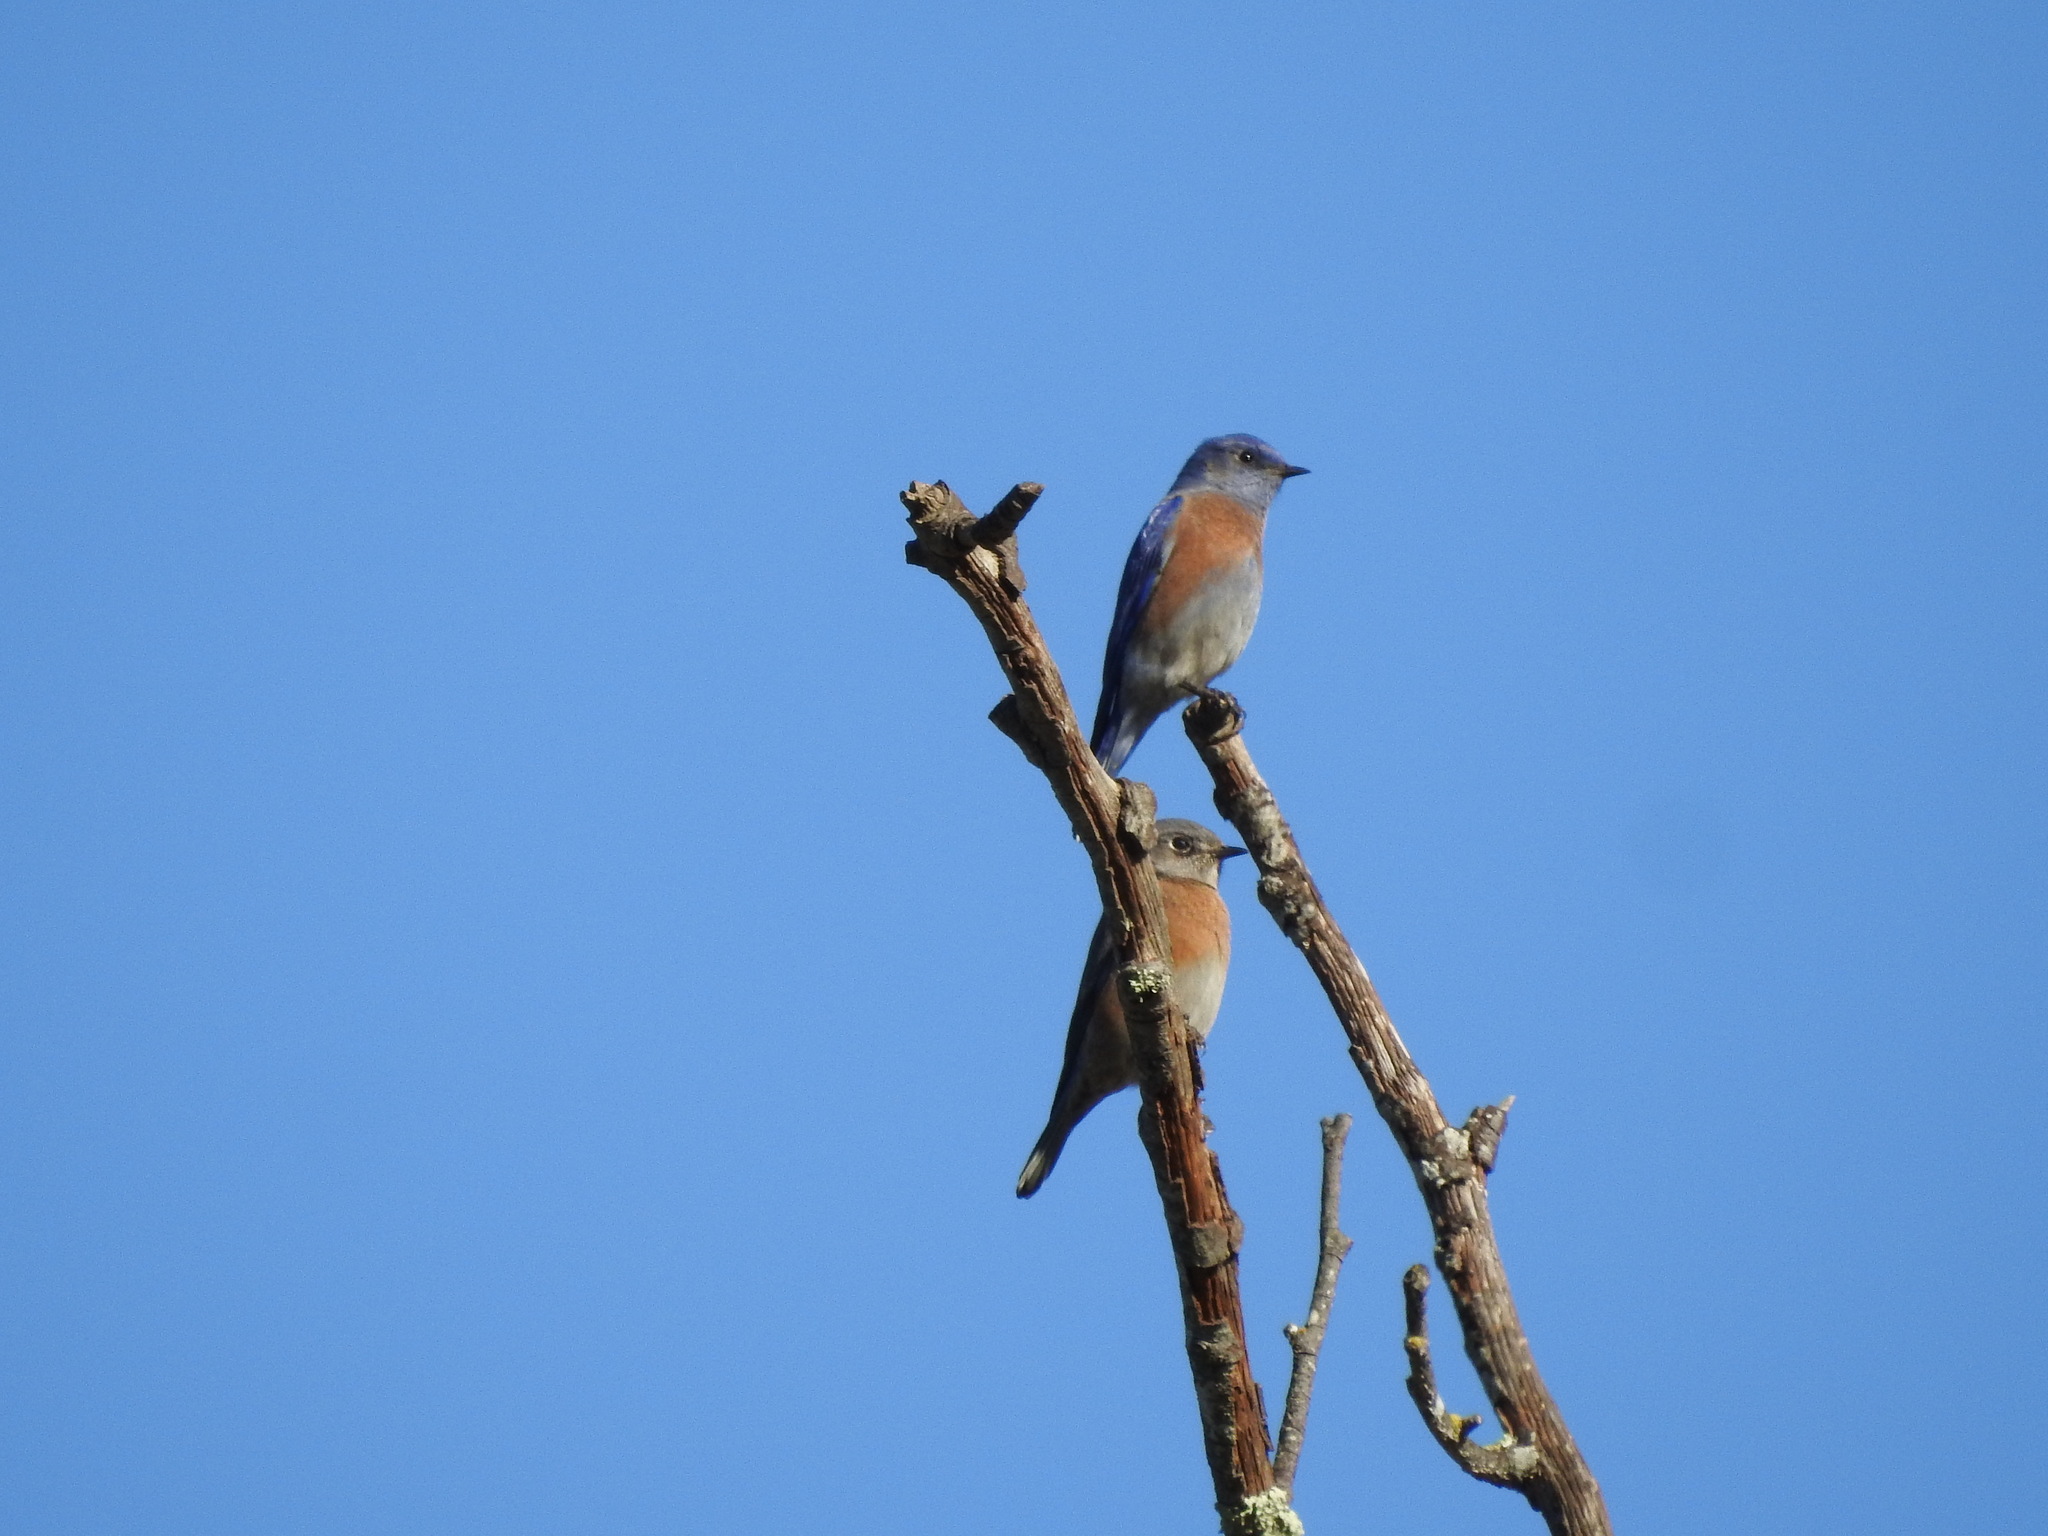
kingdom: Animalia
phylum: Chordata
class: Aves
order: Passeriformes
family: Turdidae
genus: Sialia
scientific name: Sialia mexicana
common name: Western bluebird
